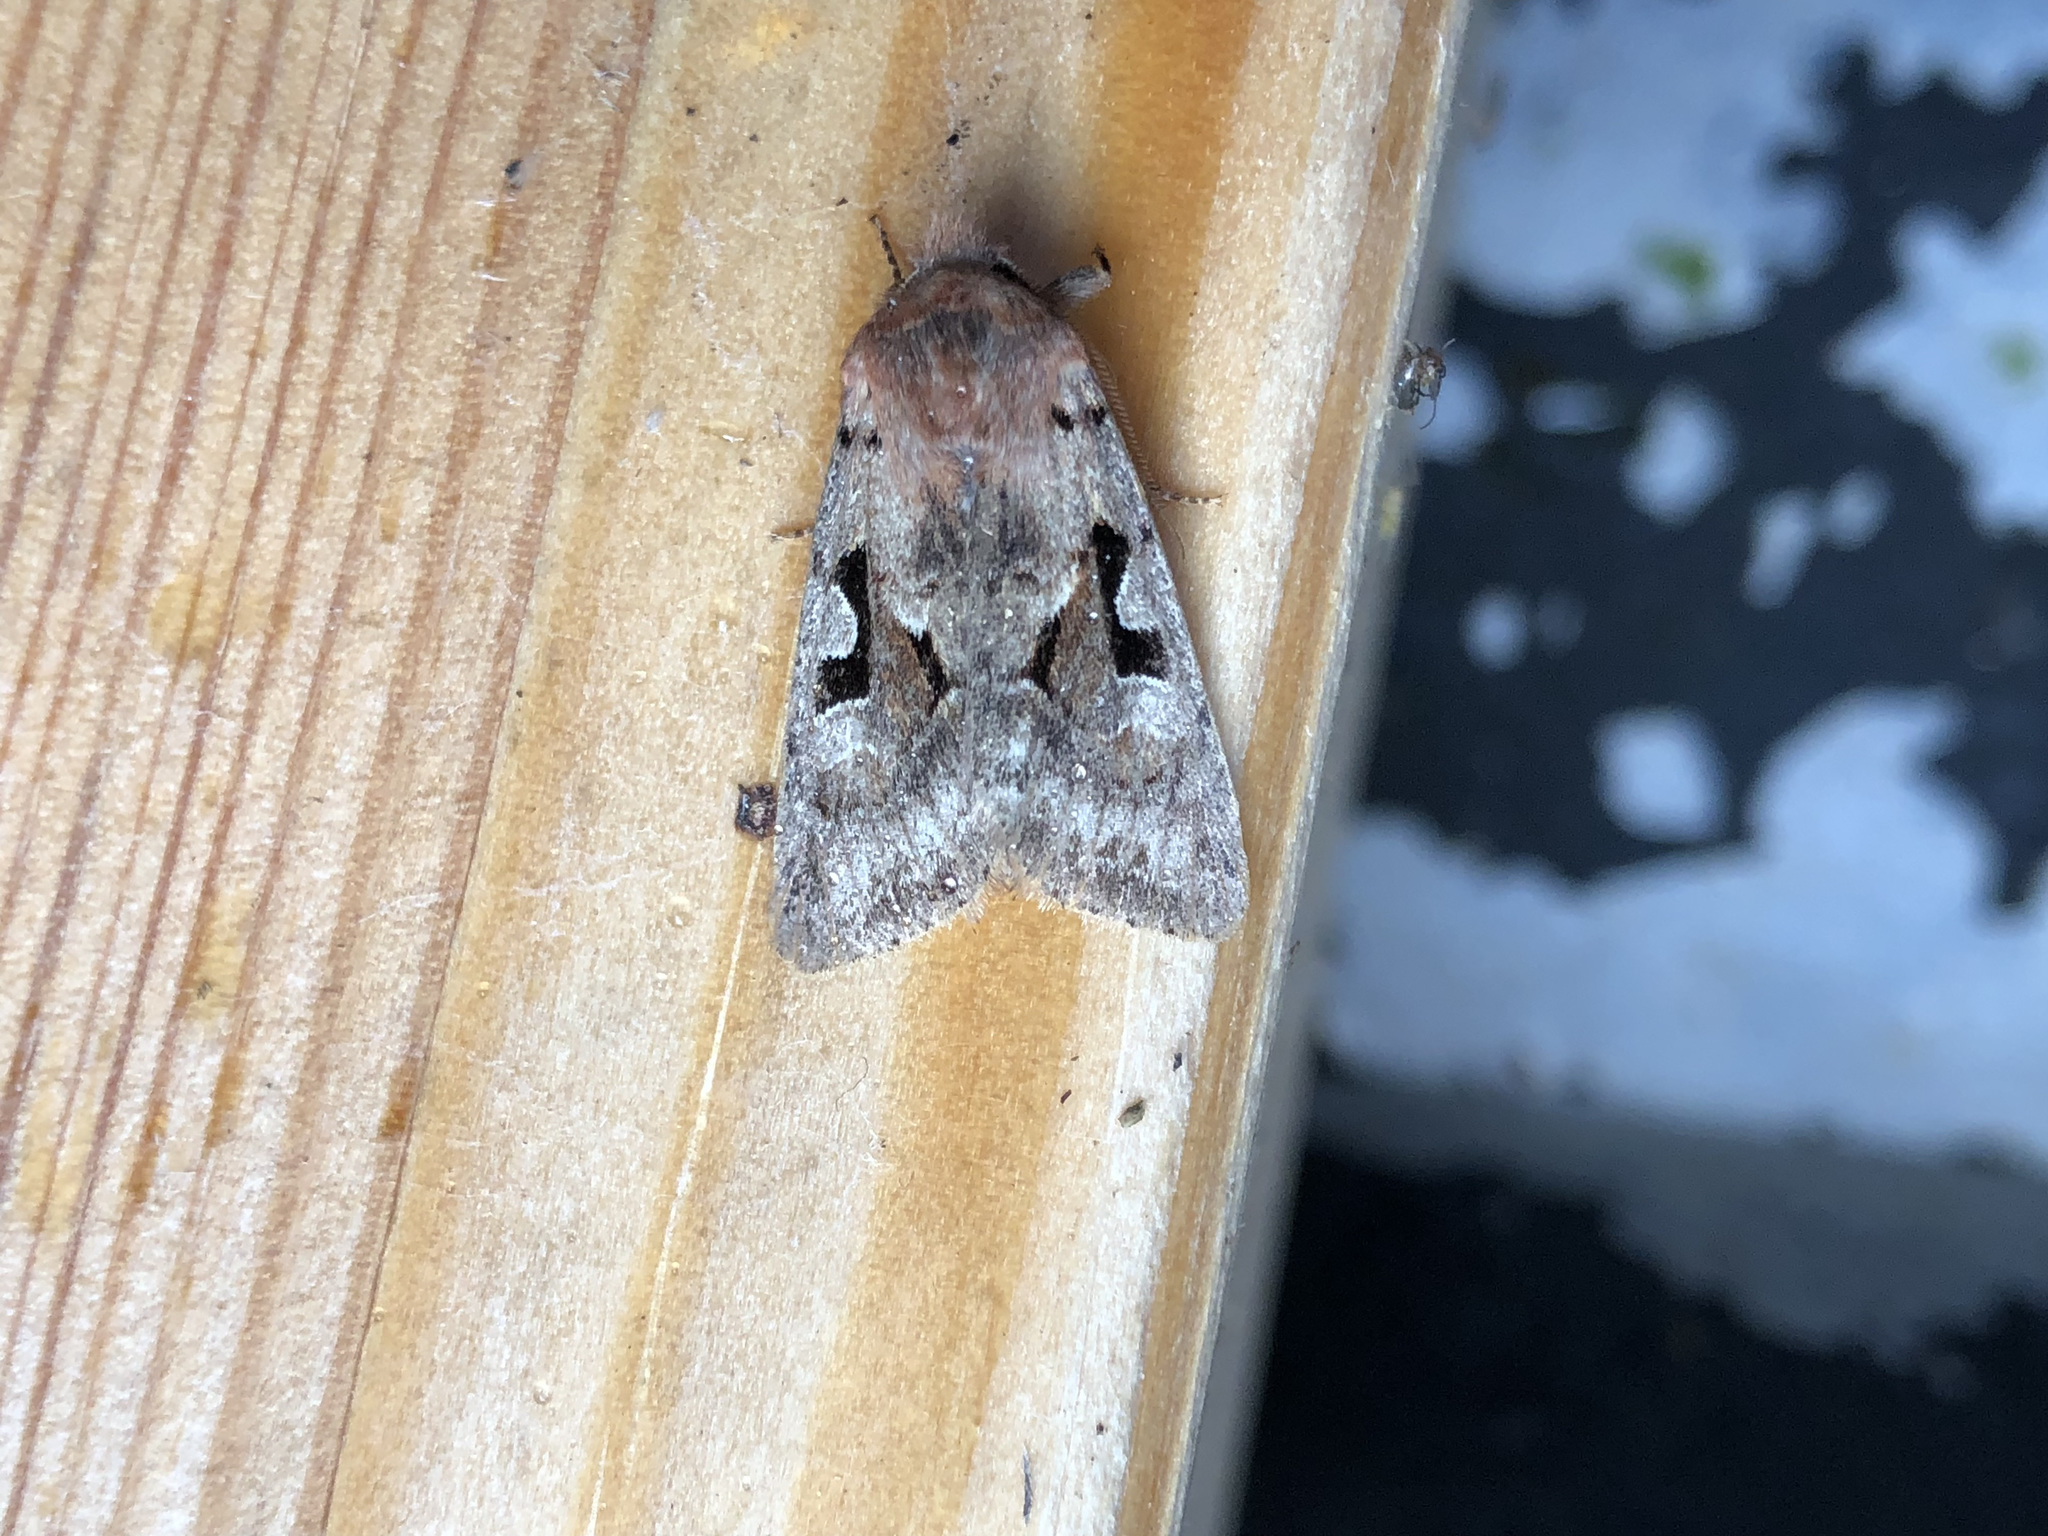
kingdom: Animalia
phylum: Arthropoda
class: Insecta
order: Lepidoptera
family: Noctuidae
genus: Orthosia
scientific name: Orthosia gothica
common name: Hebrew character
